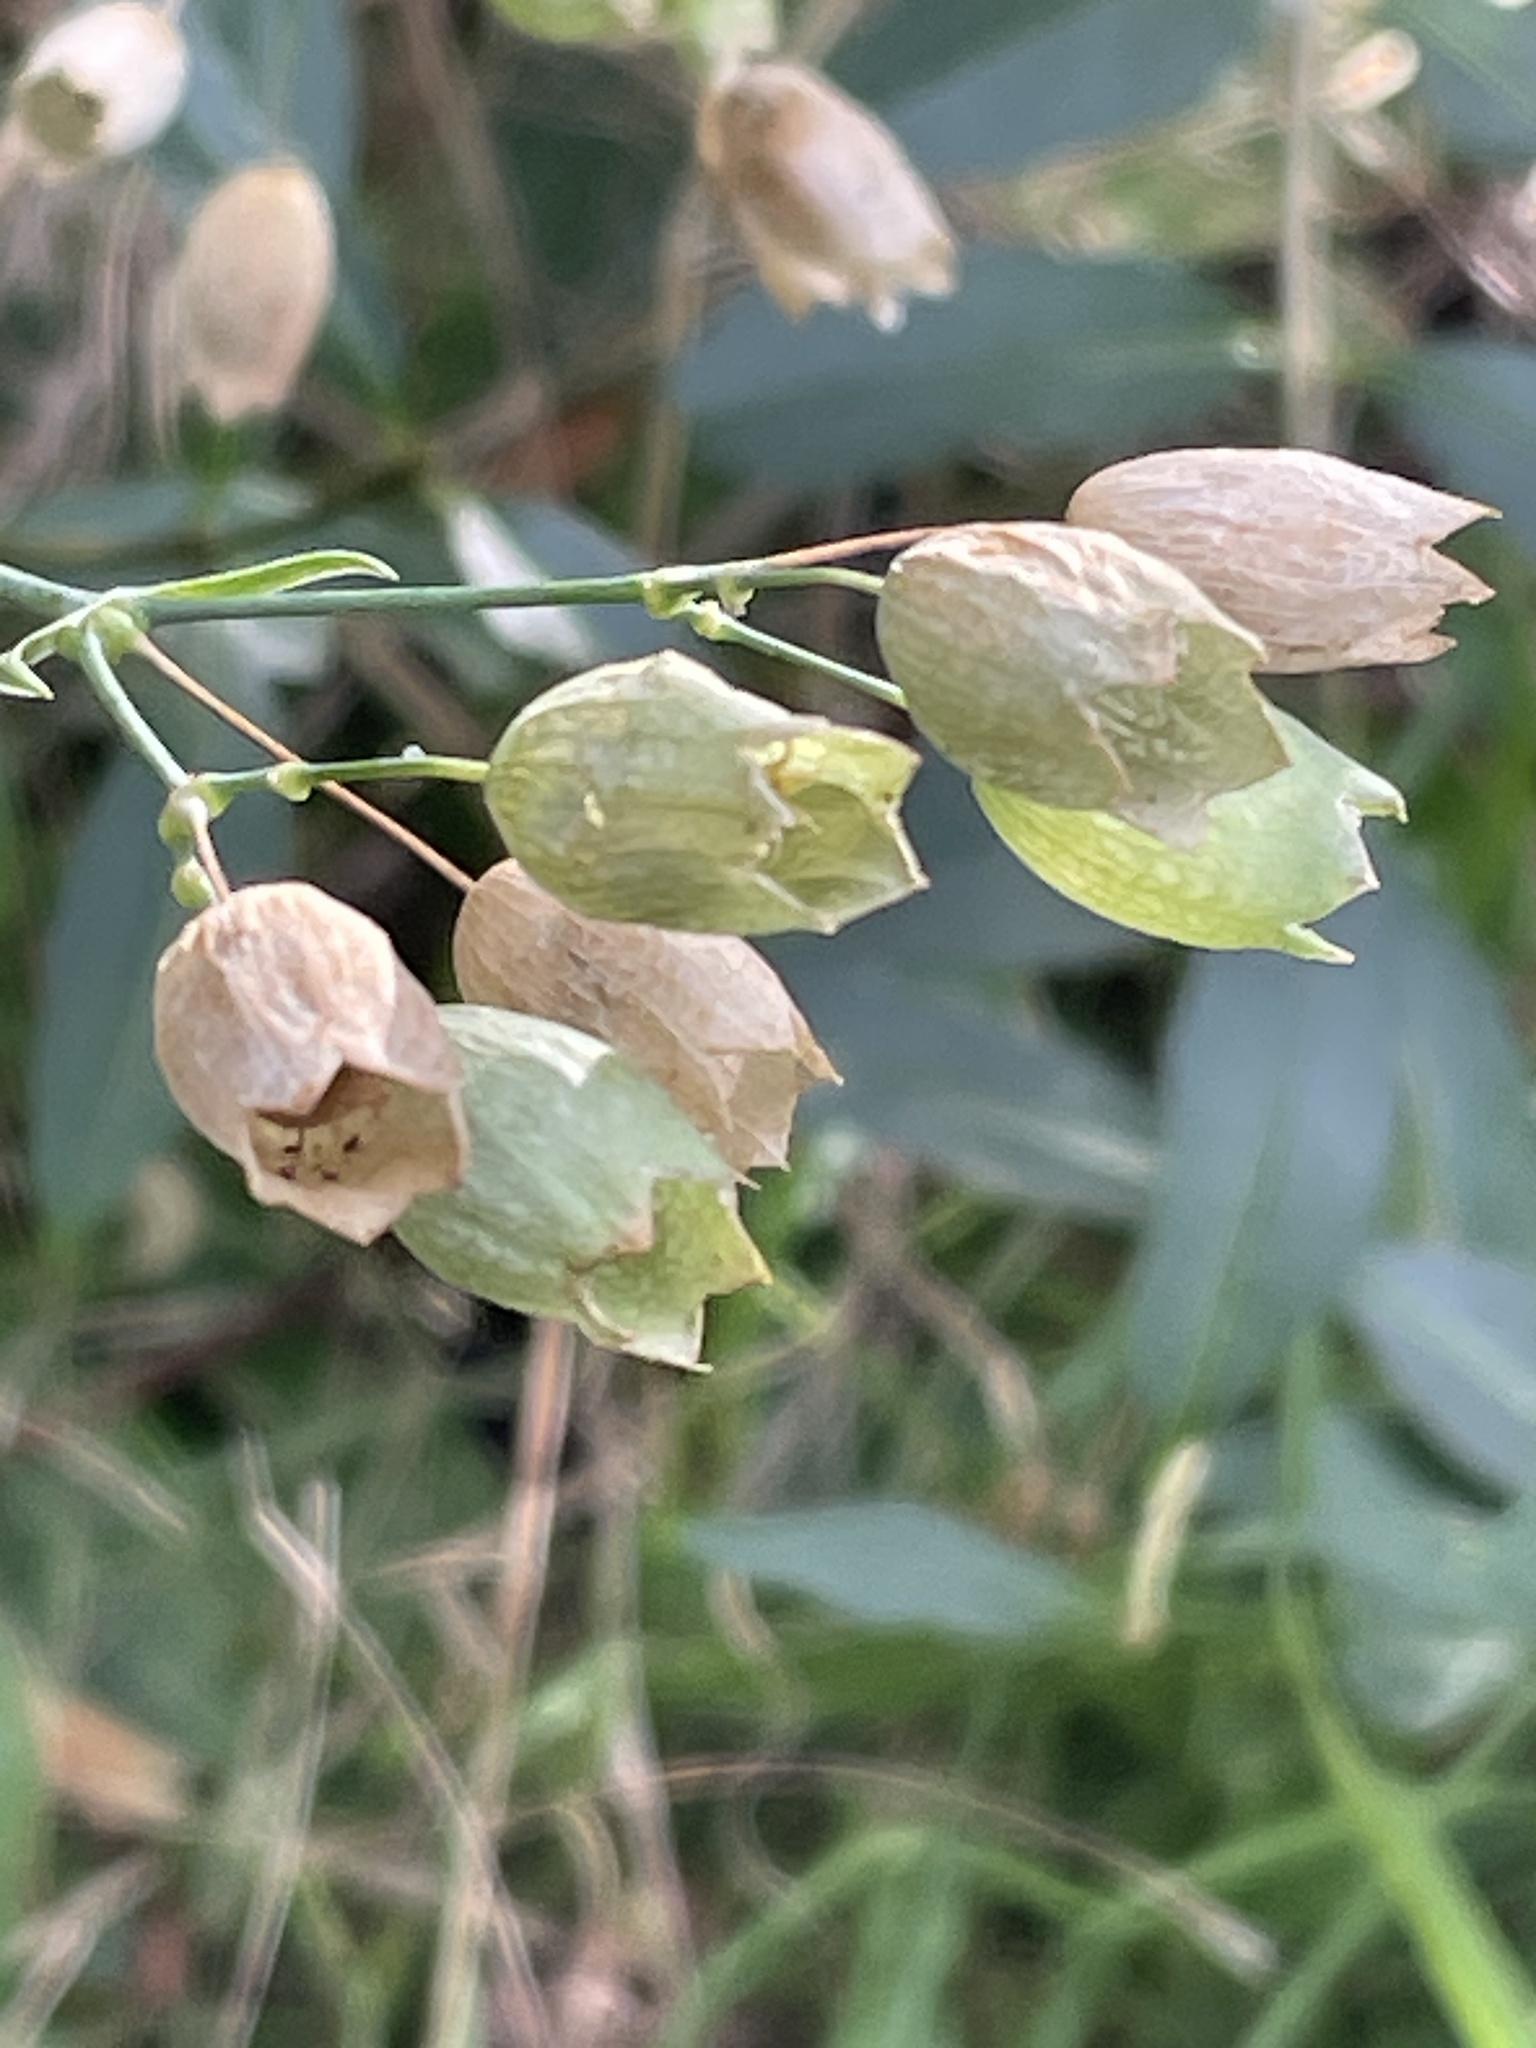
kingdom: Plantae
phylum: Tracheophyta
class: Magnoliopsida
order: Caryophyllales
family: Caryophyllaceae
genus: Silene
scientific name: Silene vulgaris
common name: Bladder campion
